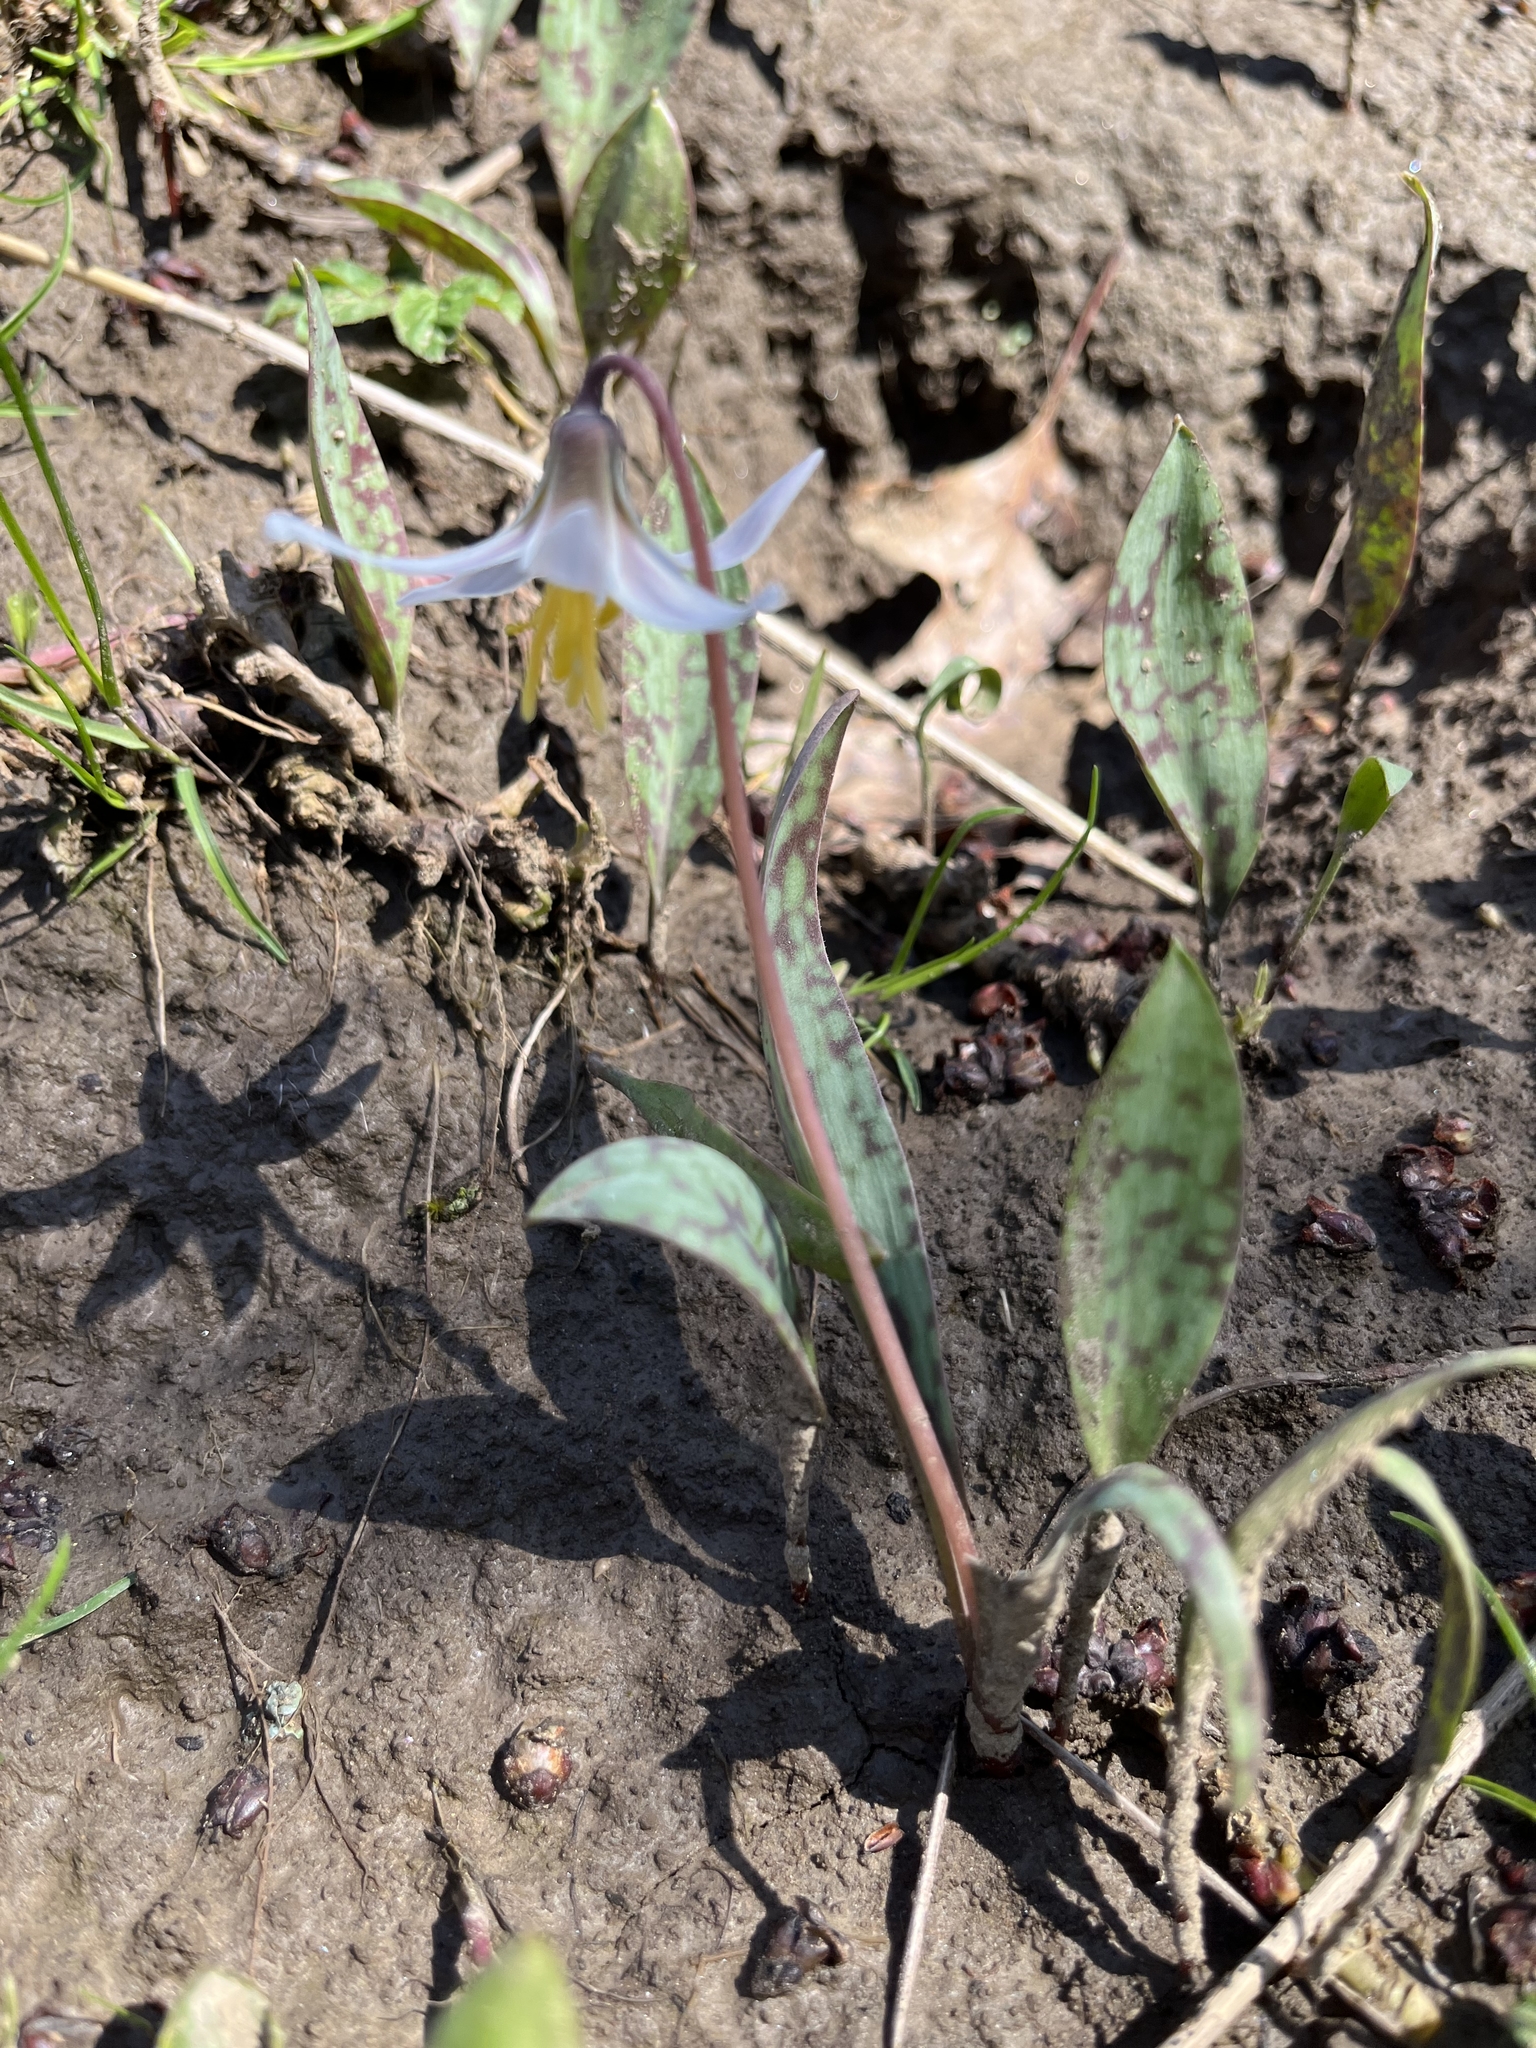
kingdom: Plantae
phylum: Tracheophyta
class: Liliopsida
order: Liliales
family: Liliaceae
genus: Erythronium
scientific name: Erythronium albidum
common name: White trout-lily
